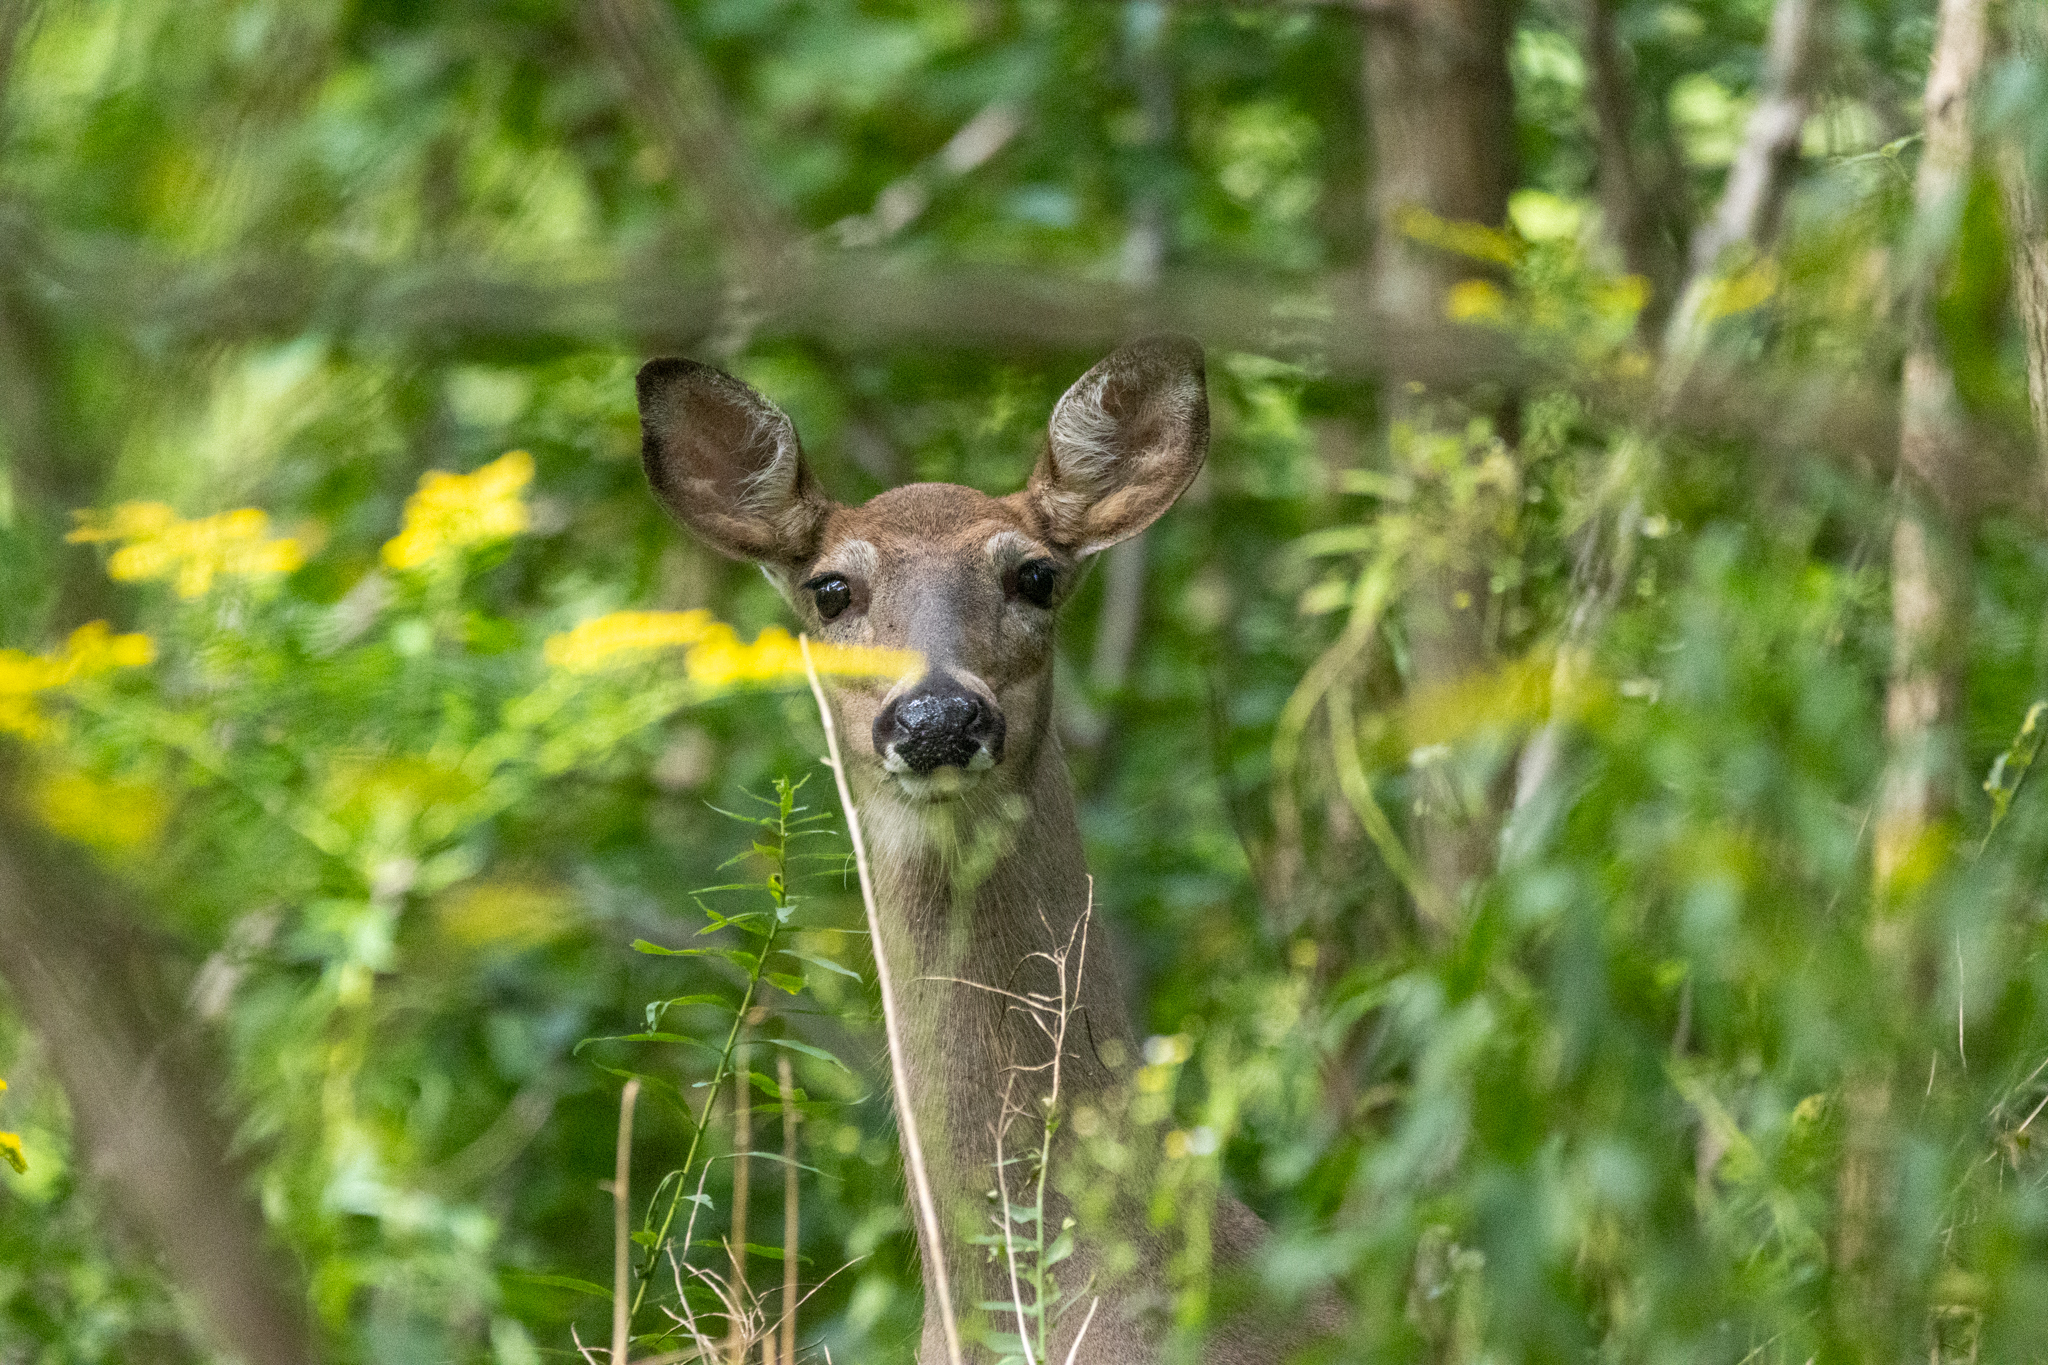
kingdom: Animalia
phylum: Chordata
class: Mammalia
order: Artiodactyla
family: Cervidae
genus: Odocoileus
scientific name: Odocoileus virginianus
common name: White-tailed deer
